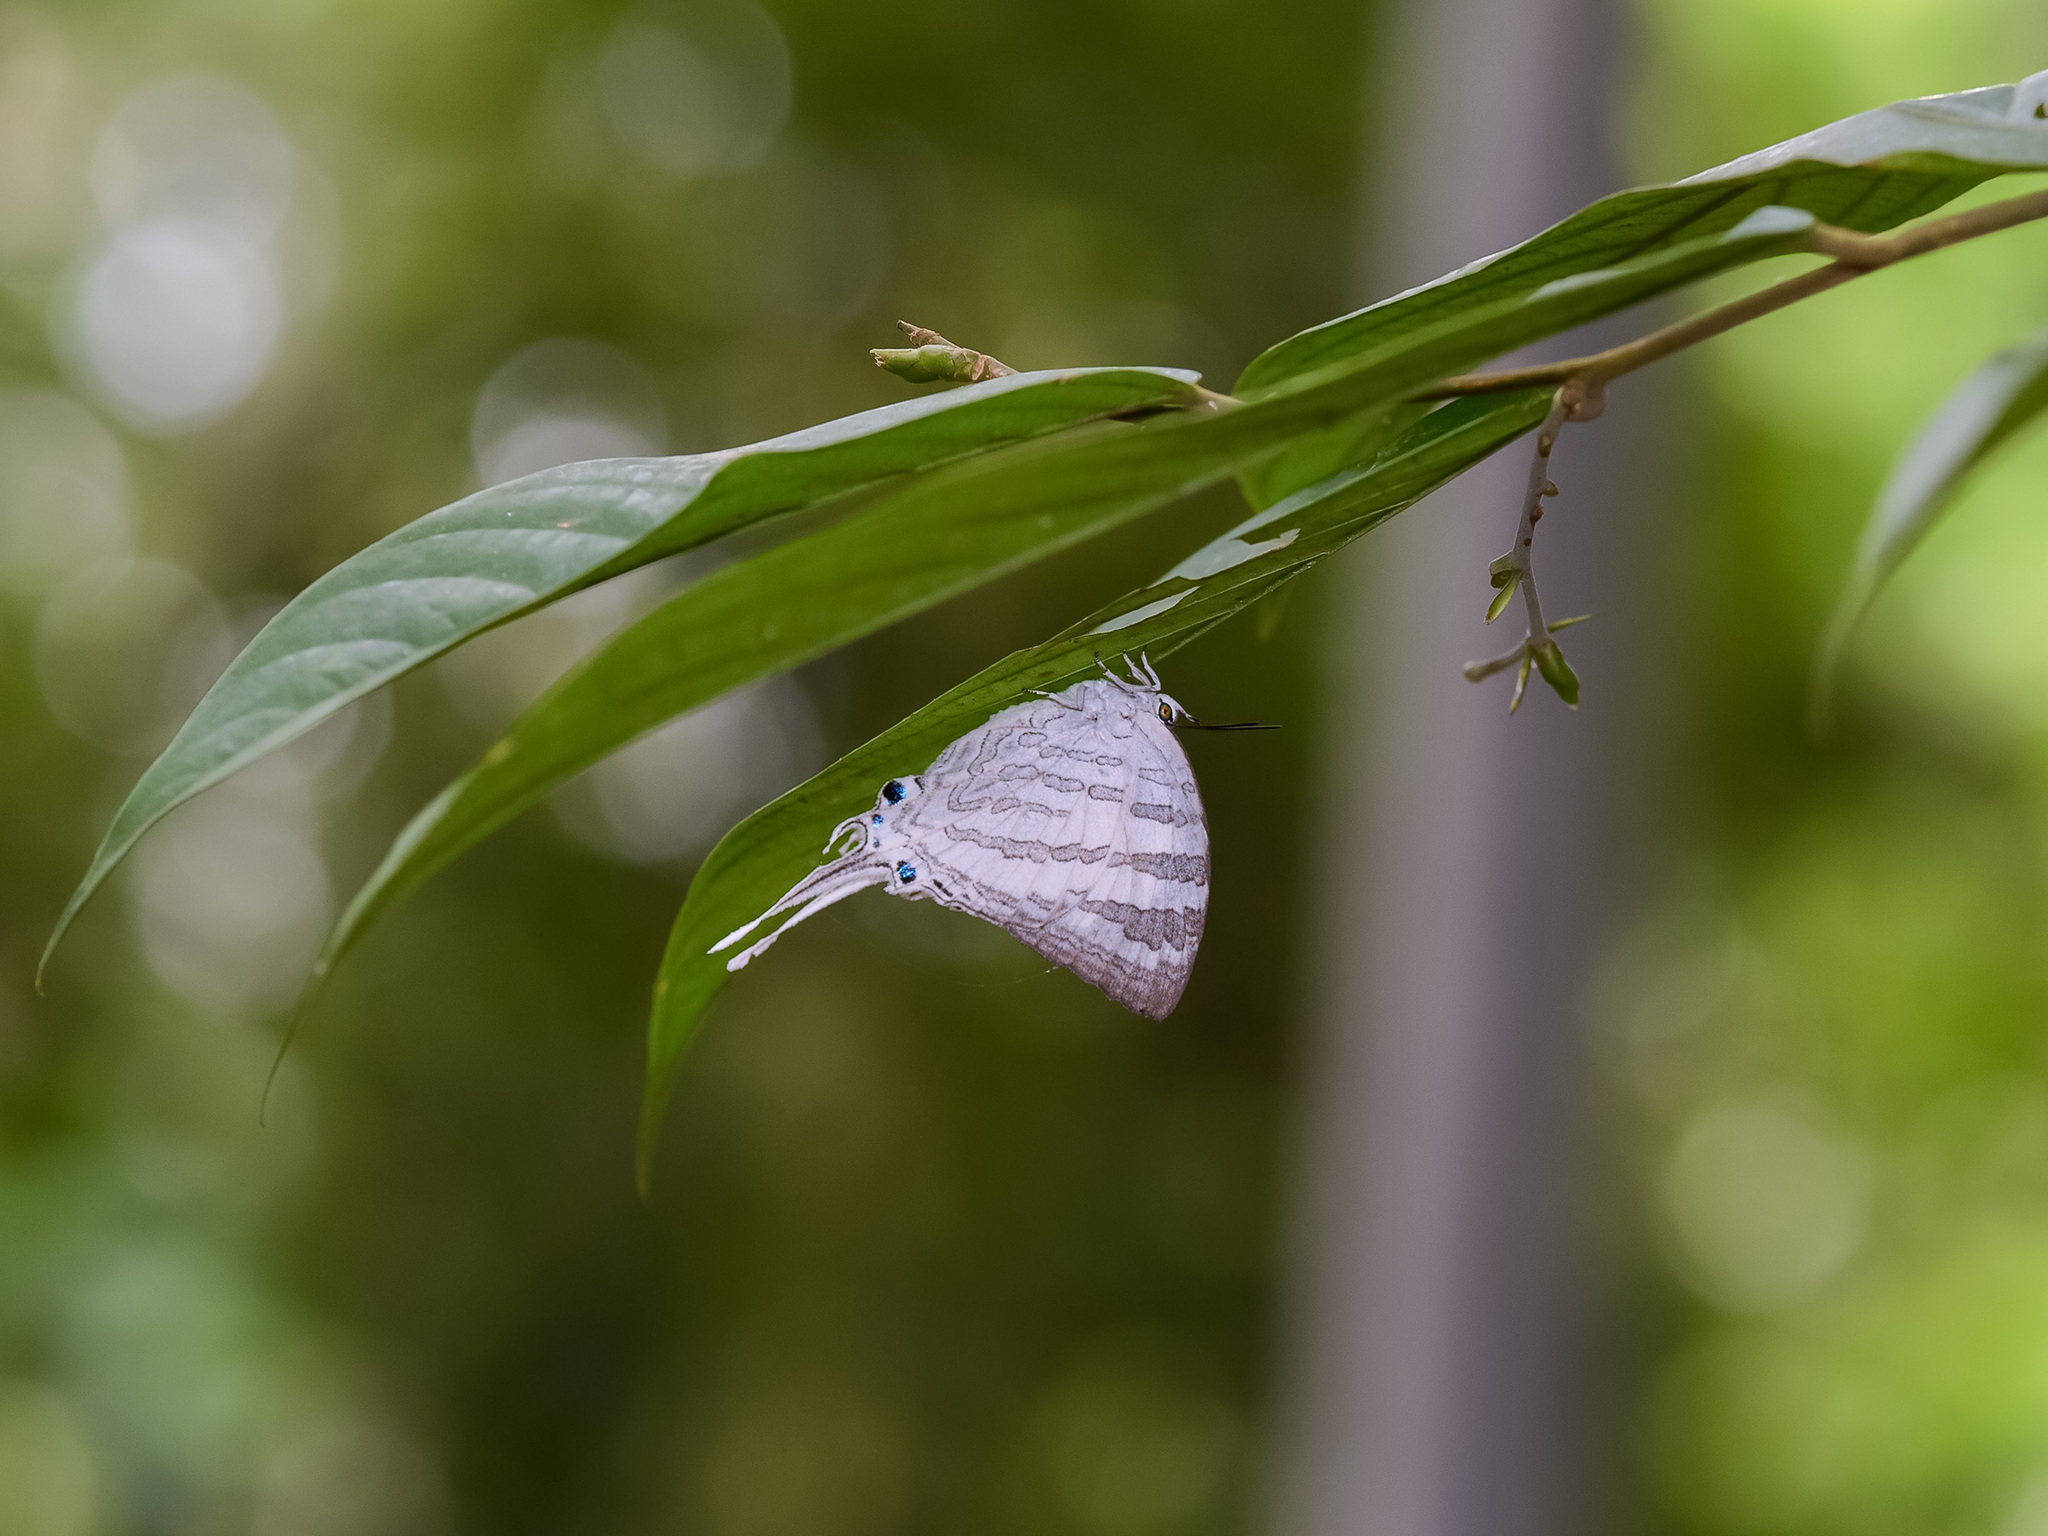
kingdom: Animalia
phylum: Arthropoda
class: Insecta
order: Lepidoptera
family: Lycaenidae
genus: Neomyrina
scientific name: Neomyrina nivea
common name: White imperial butterfly
